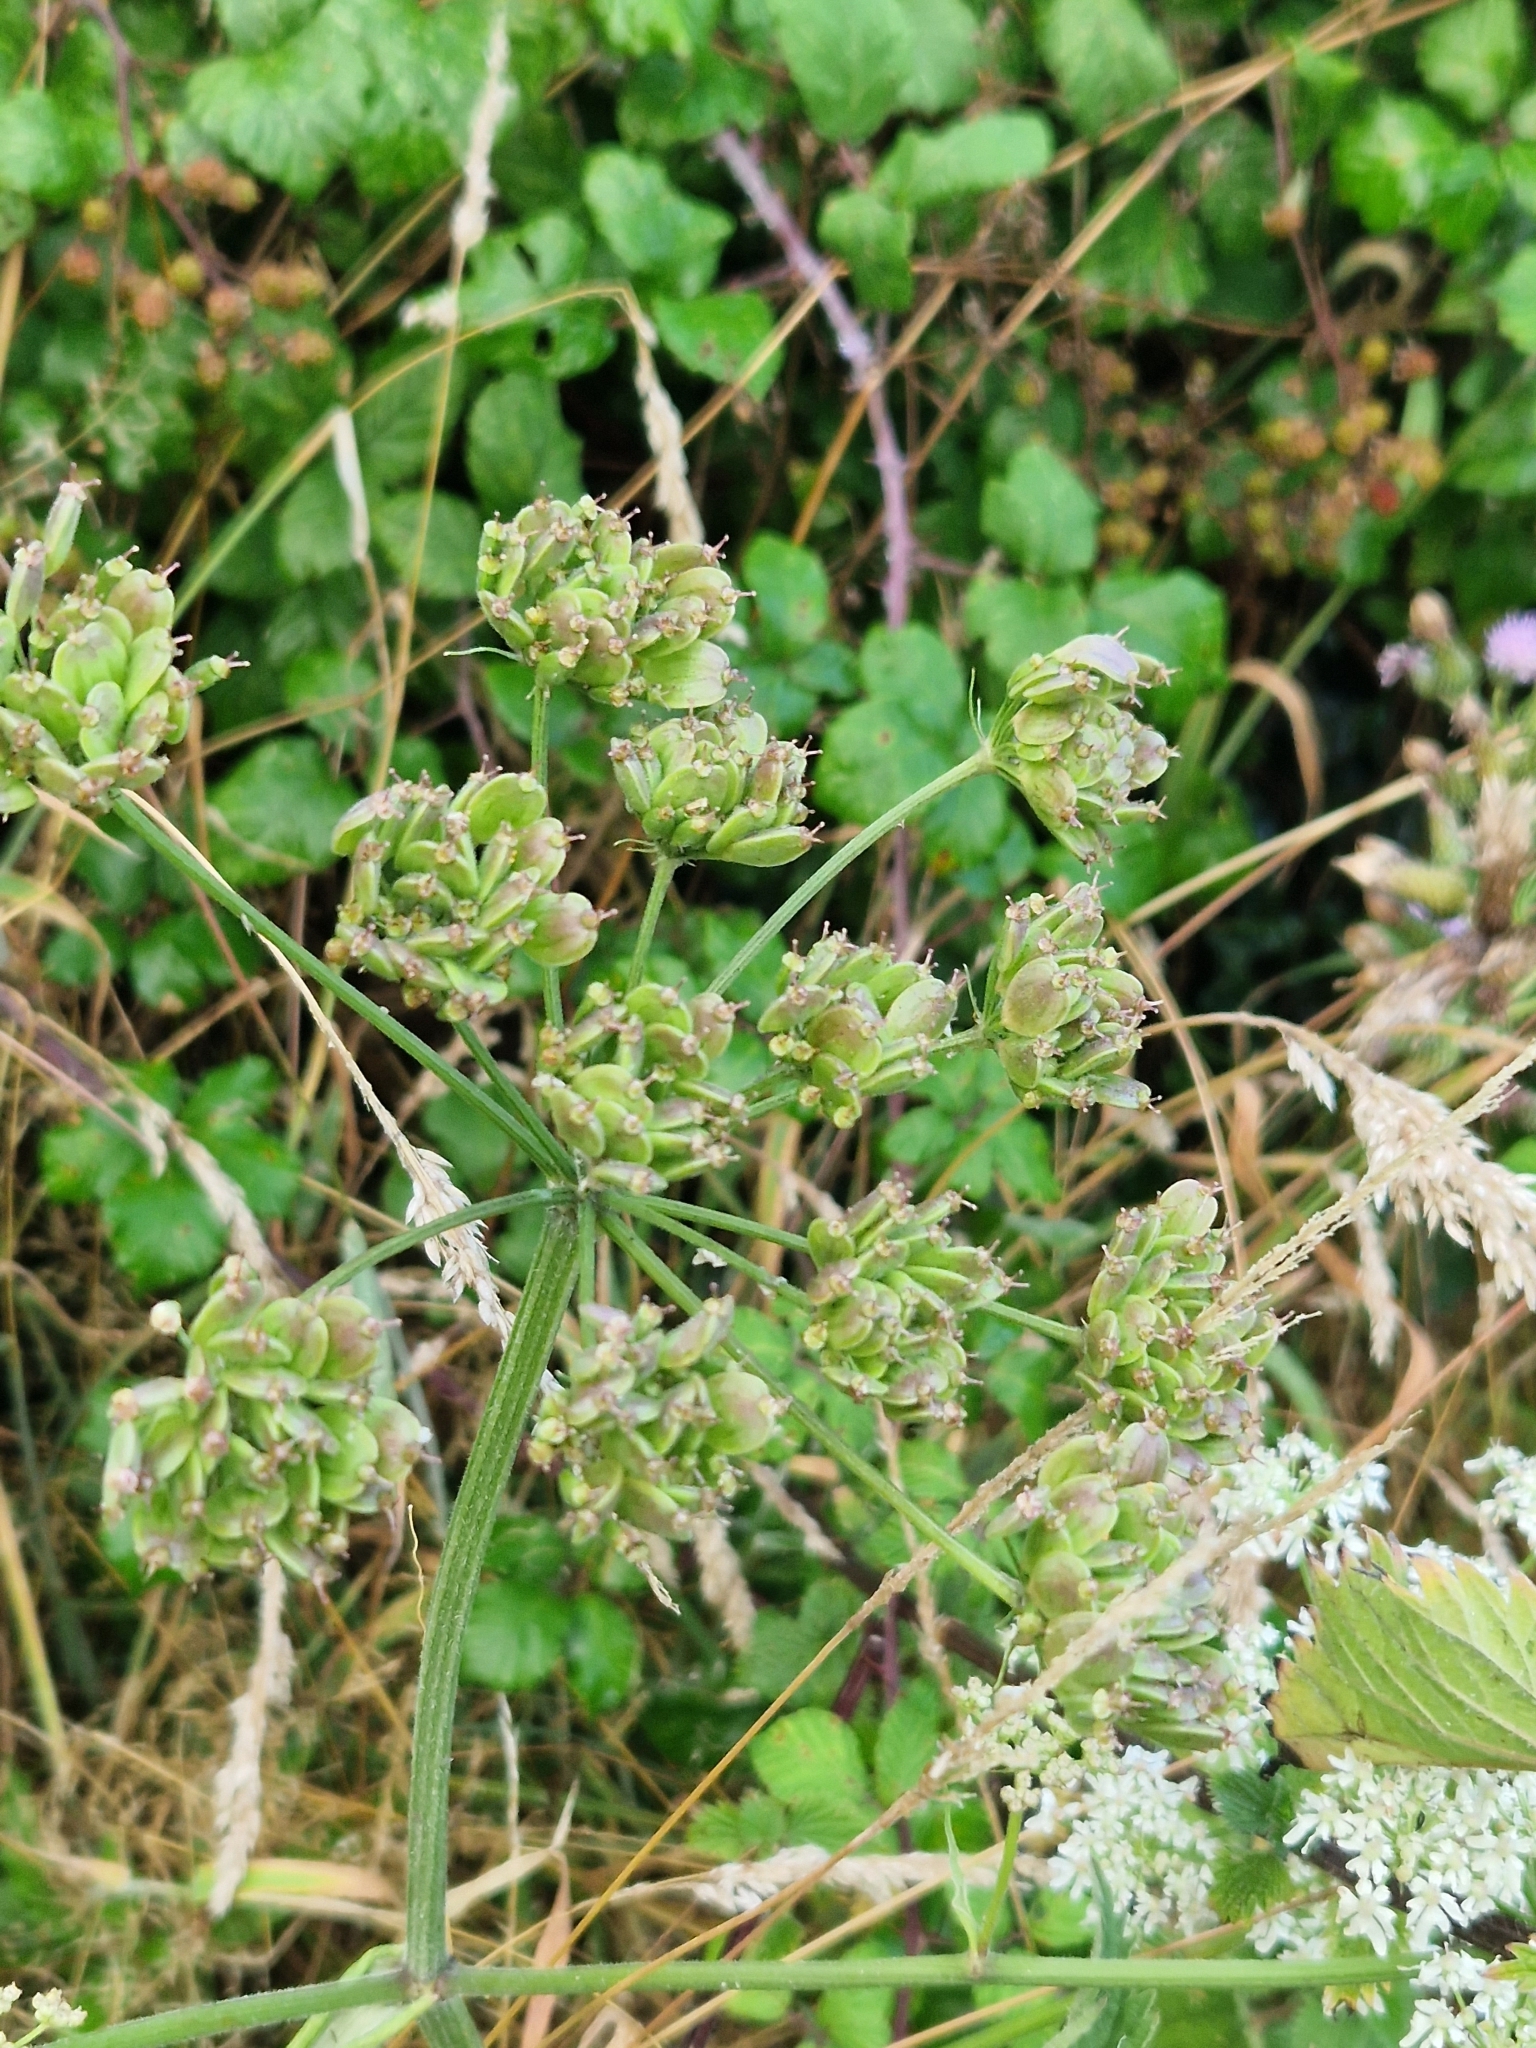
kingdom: Plantae
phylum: Tracheophyta
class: Magnoliopsida
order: Apiales
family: Apiaceae
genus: Heracleum
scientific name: Heracleum sphondylium
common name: Hogweed
